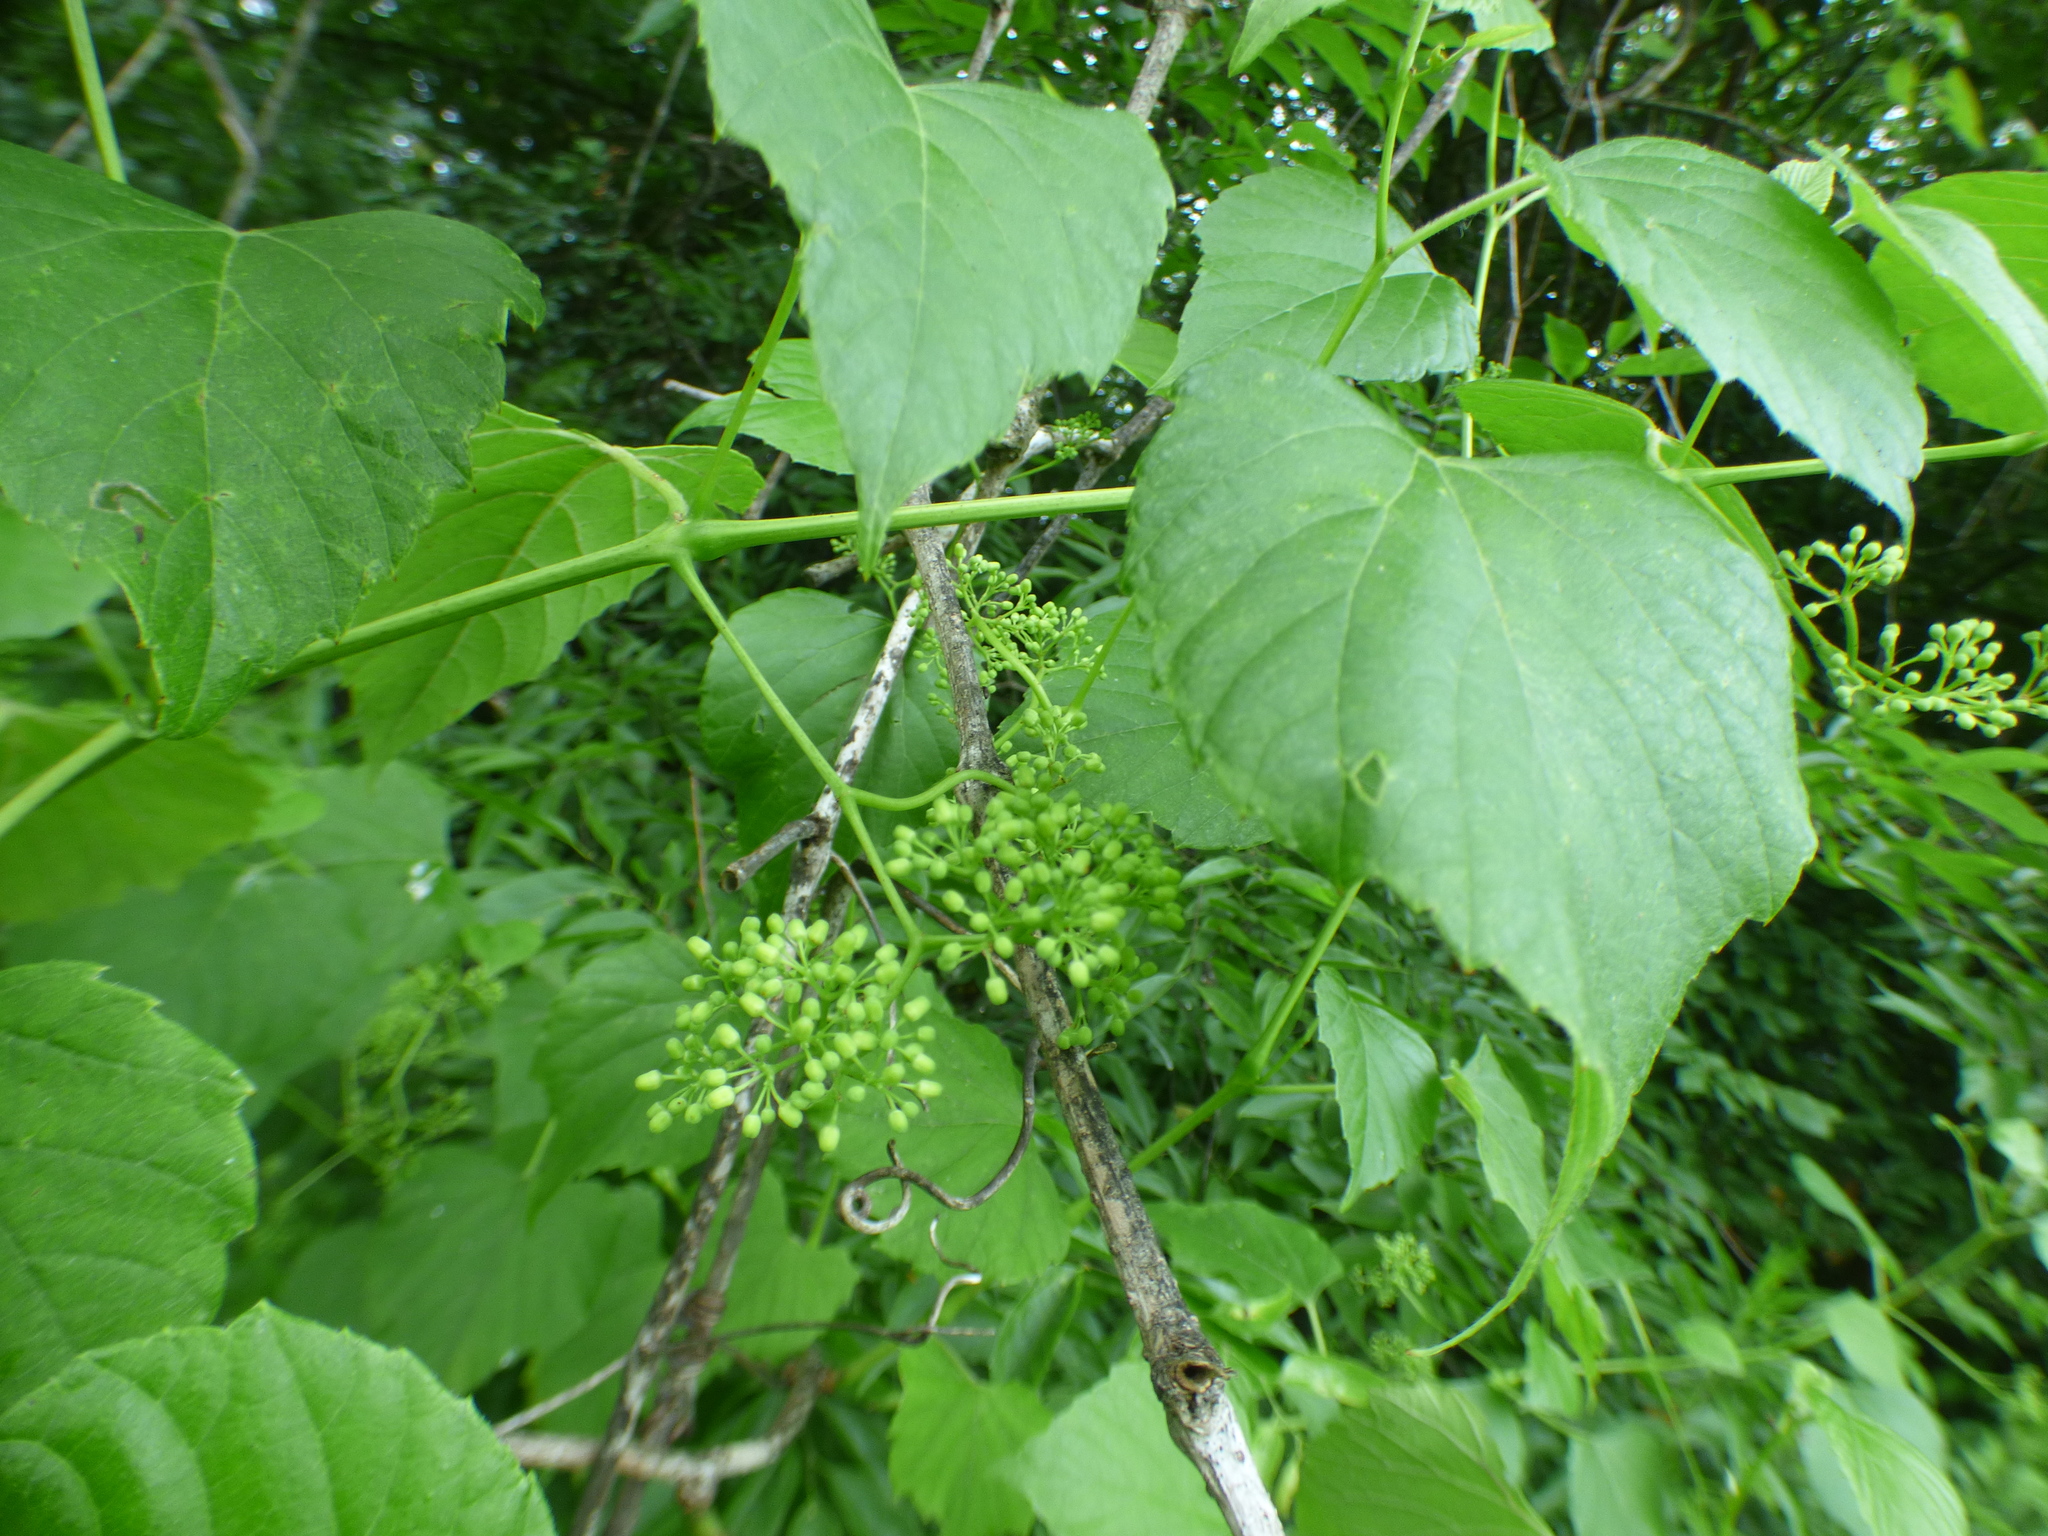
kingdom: Plantae
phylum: Tracheophyta
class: Magnoliopsida
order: Vitales
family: Vitaceae
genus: Ampelopsis
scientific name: Ampelopsis cordata
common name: Heart-leaf ampelopsis
